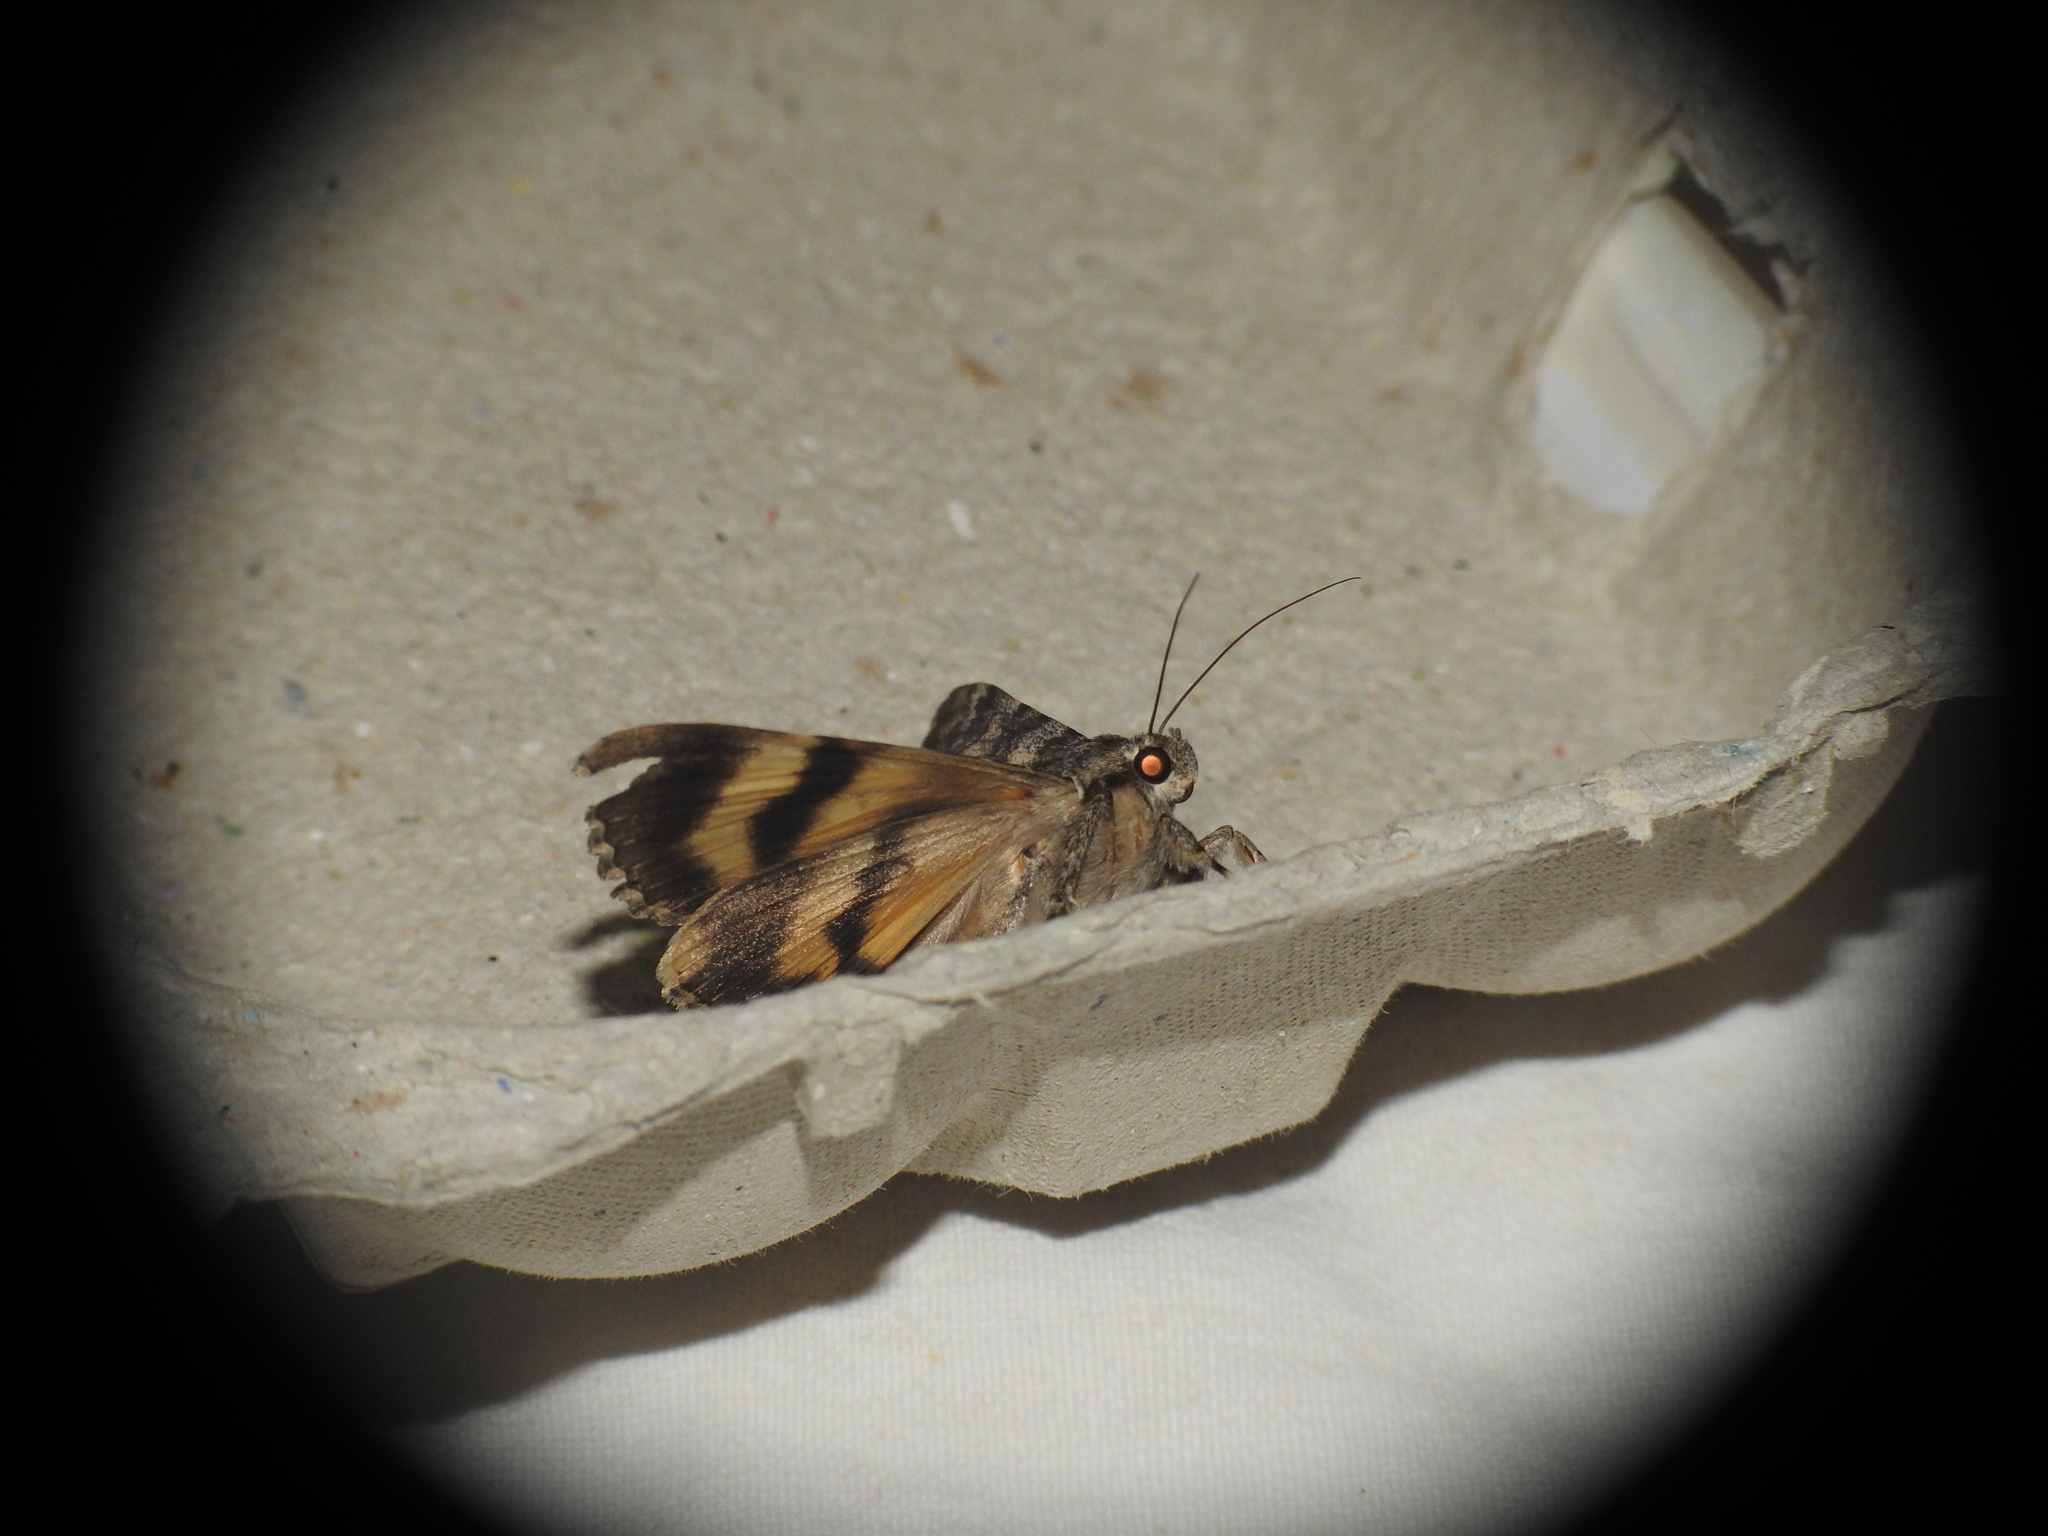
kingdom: Animalia
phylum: Arthropoda
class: Insecta
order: Lepidoptera
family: Erebidae
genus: Catocala
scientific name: Catocala nymphaea
